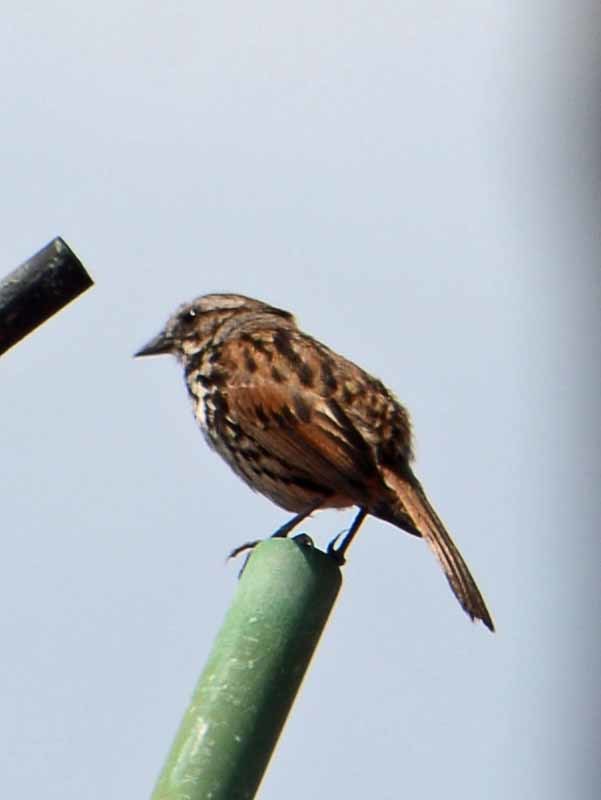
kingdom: Animalia
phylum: Chordata
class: Aves
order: Passeriformes
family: Passerellidae
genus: Melospiza
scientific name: Melospiza melodia
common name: Song sparrow
